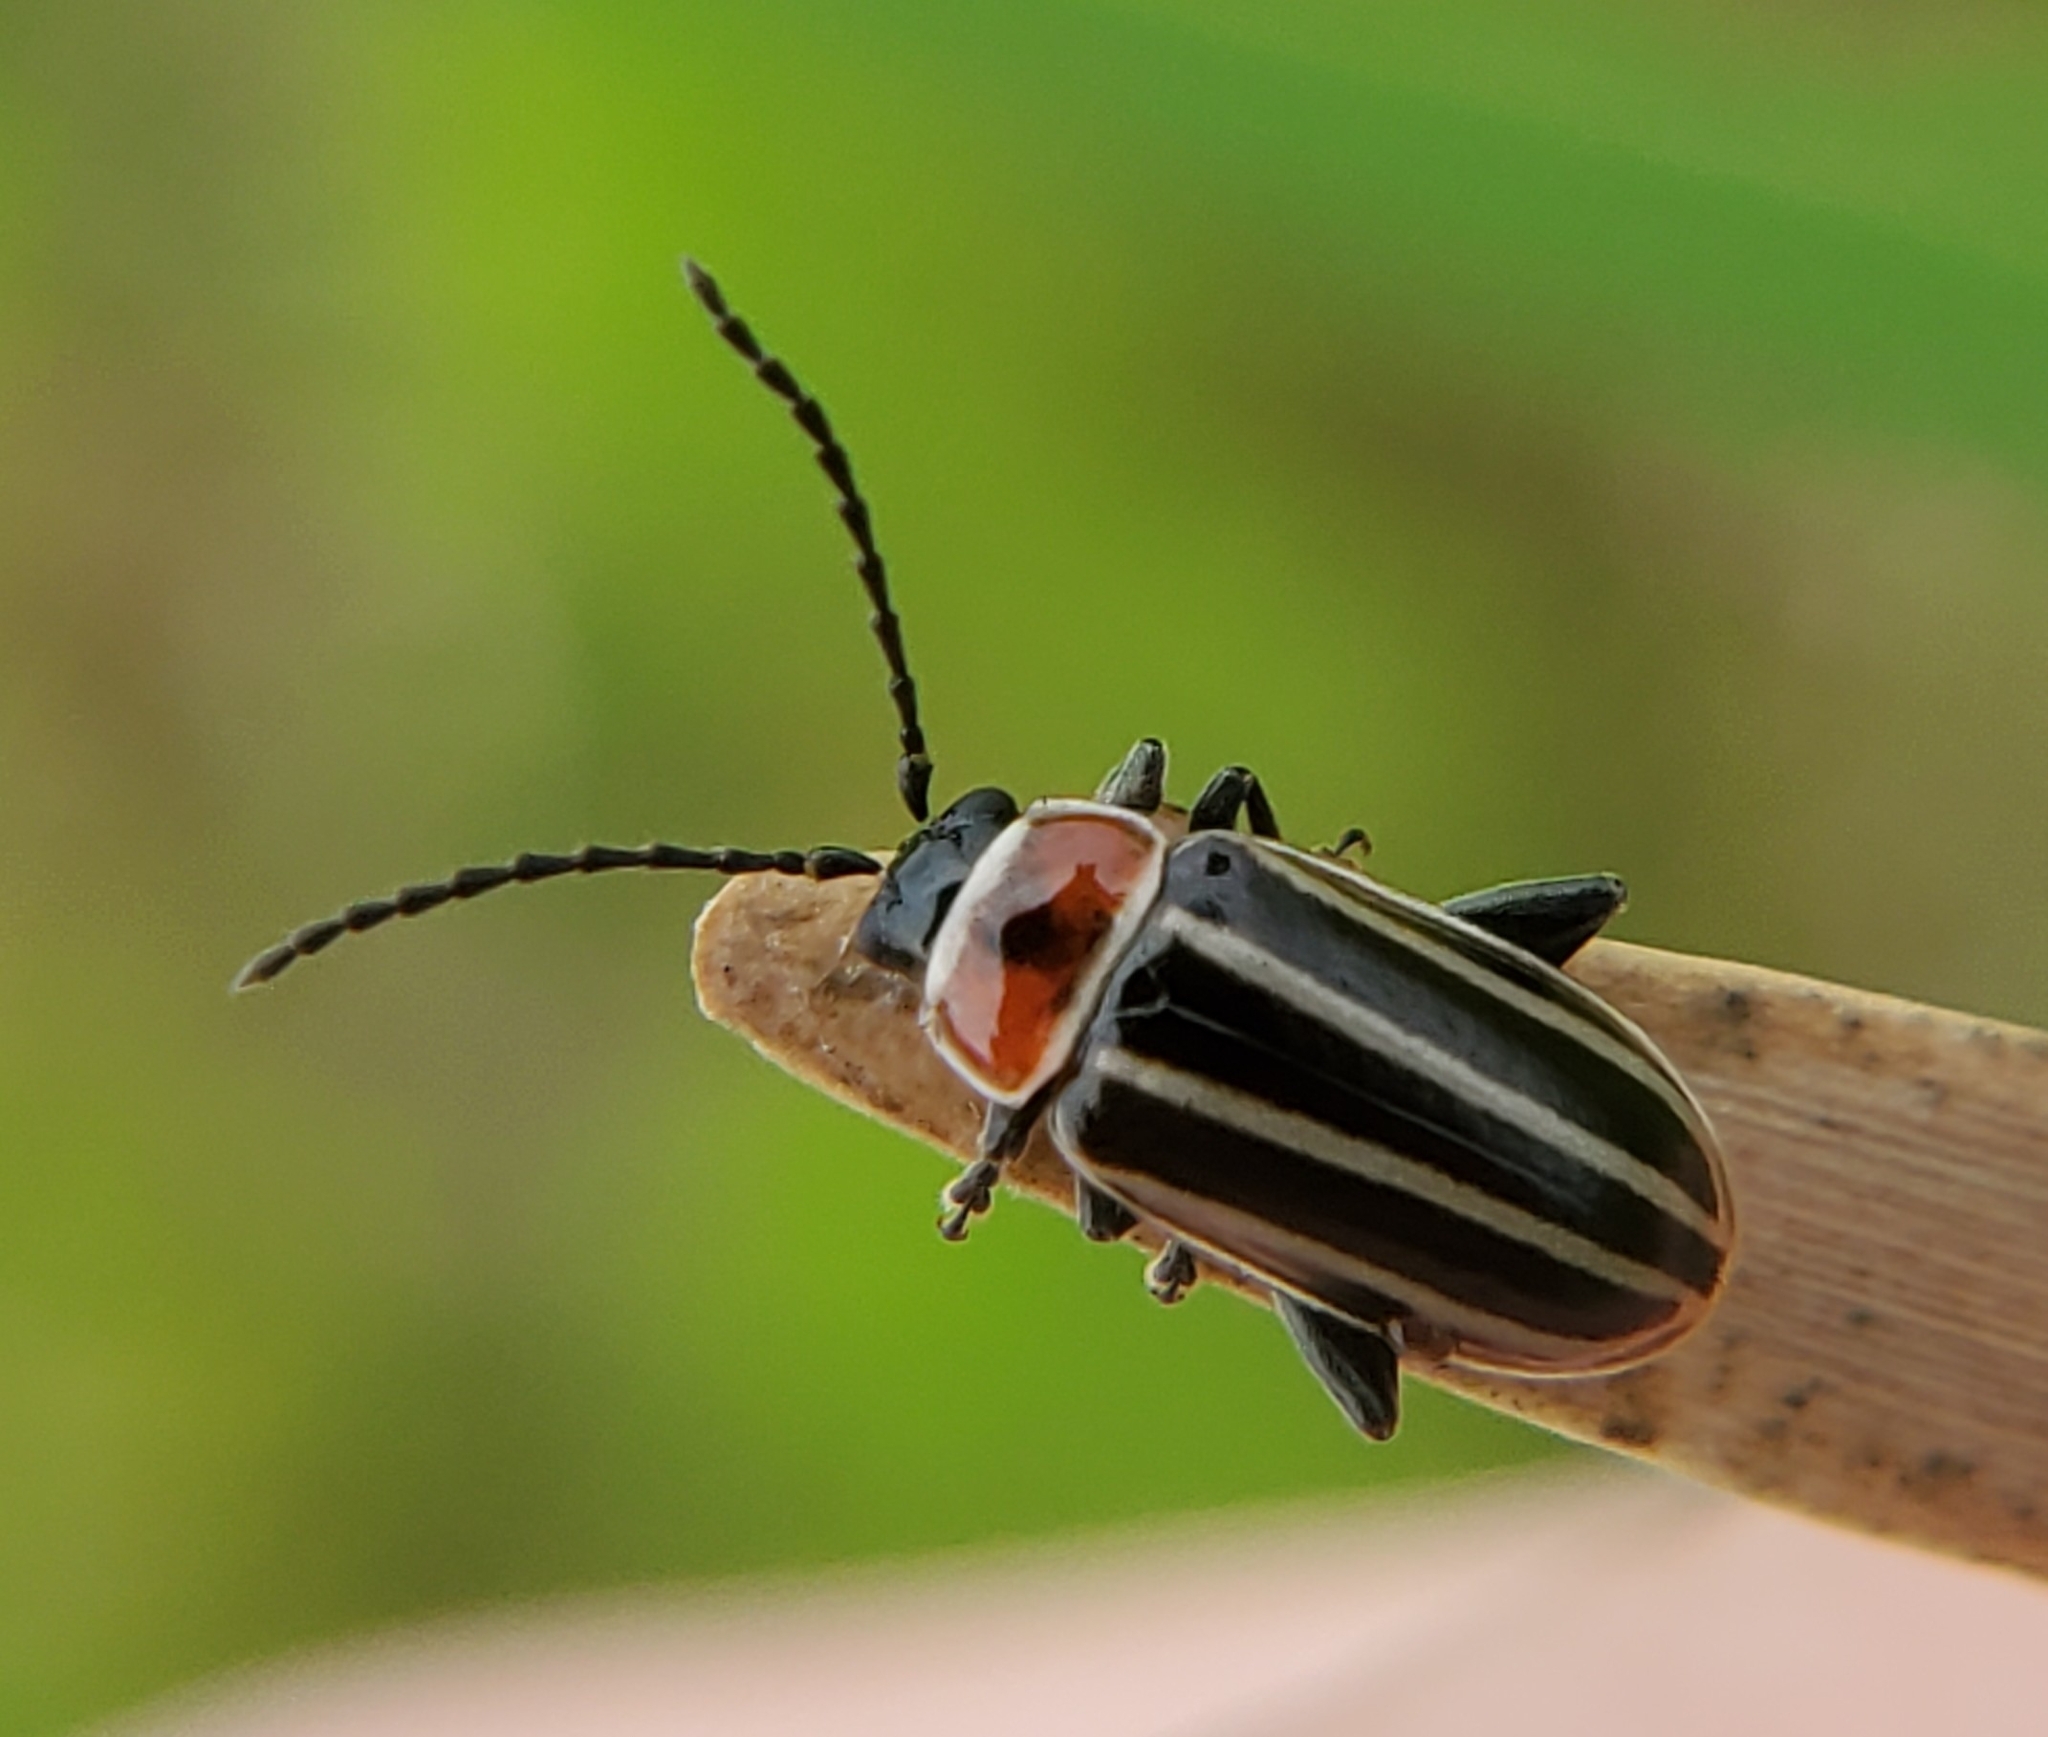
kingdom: Animalia
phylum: Arthropoda
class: Insecta
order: Coleoptera
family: Chrysomelidae
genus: Disonycha
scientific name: Disonycha pensylvanica
